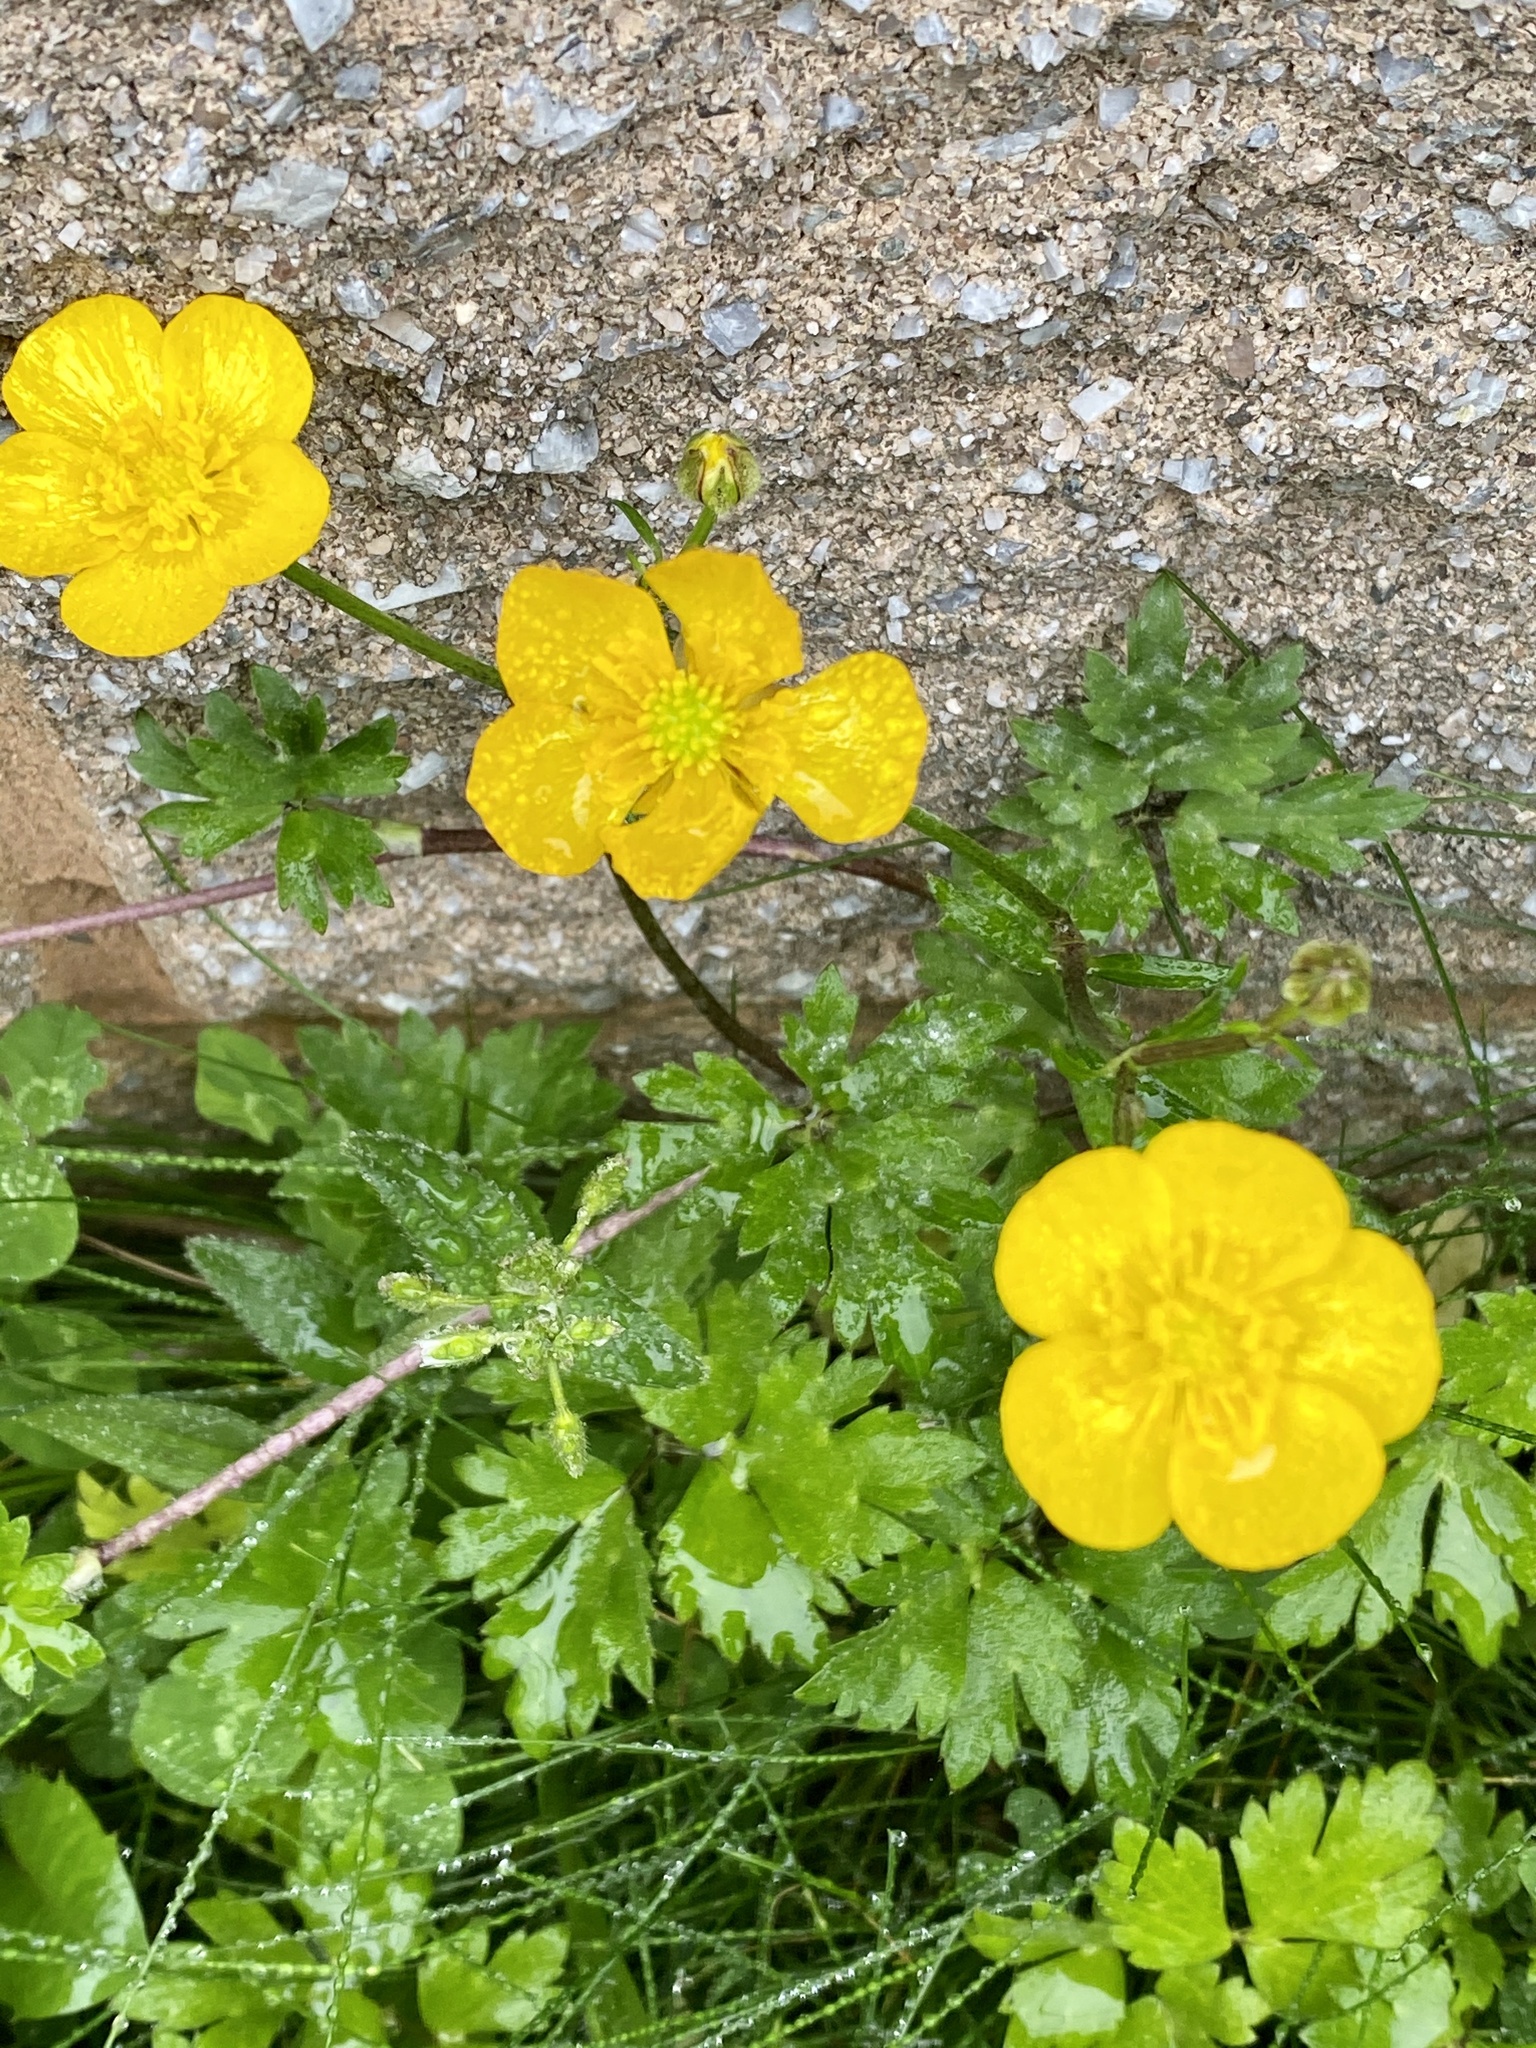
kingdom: Plantae
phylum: Tracheophyta
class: Magnoliopsida
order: Ranunculales
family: Ranunculaceae
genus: Ranunculus
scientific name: Ranunculus repens
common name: Creeping buttercup
